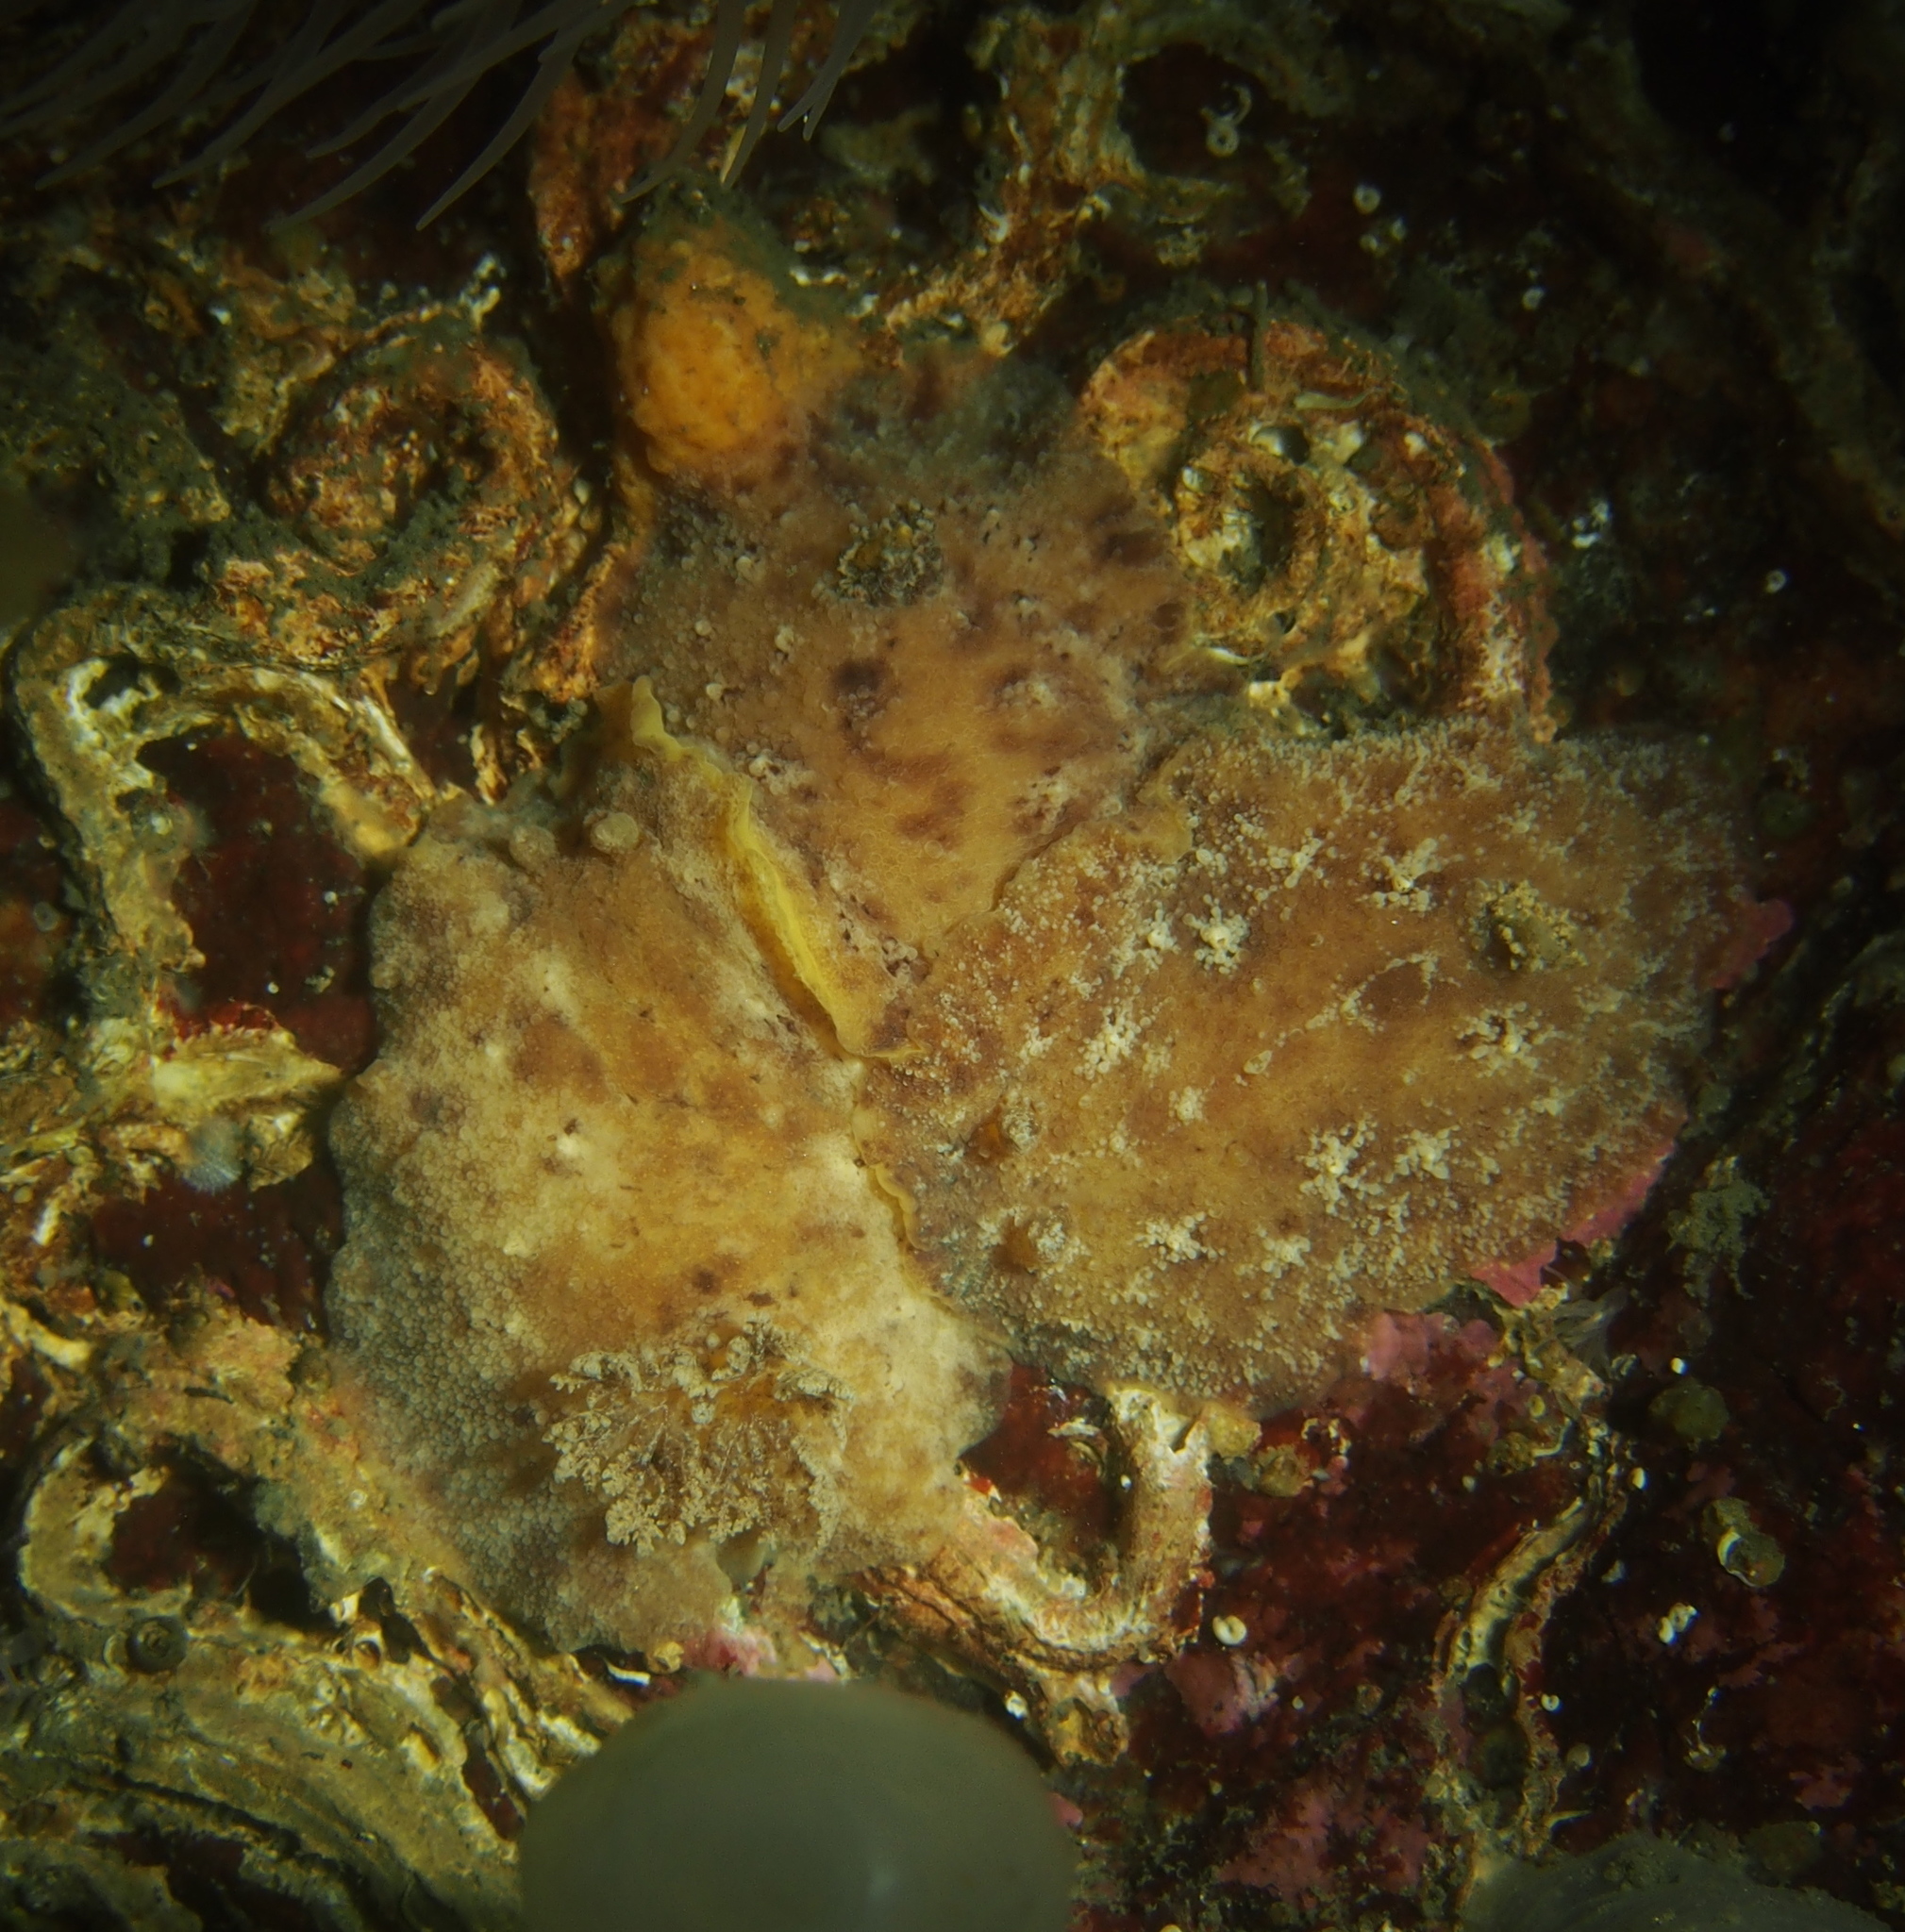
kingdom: Animalia
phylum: Mollusca
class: Gastropoda
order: Nudibranchia
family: Discodorididae
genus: Geitodoris
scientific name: Geitodoris planata
